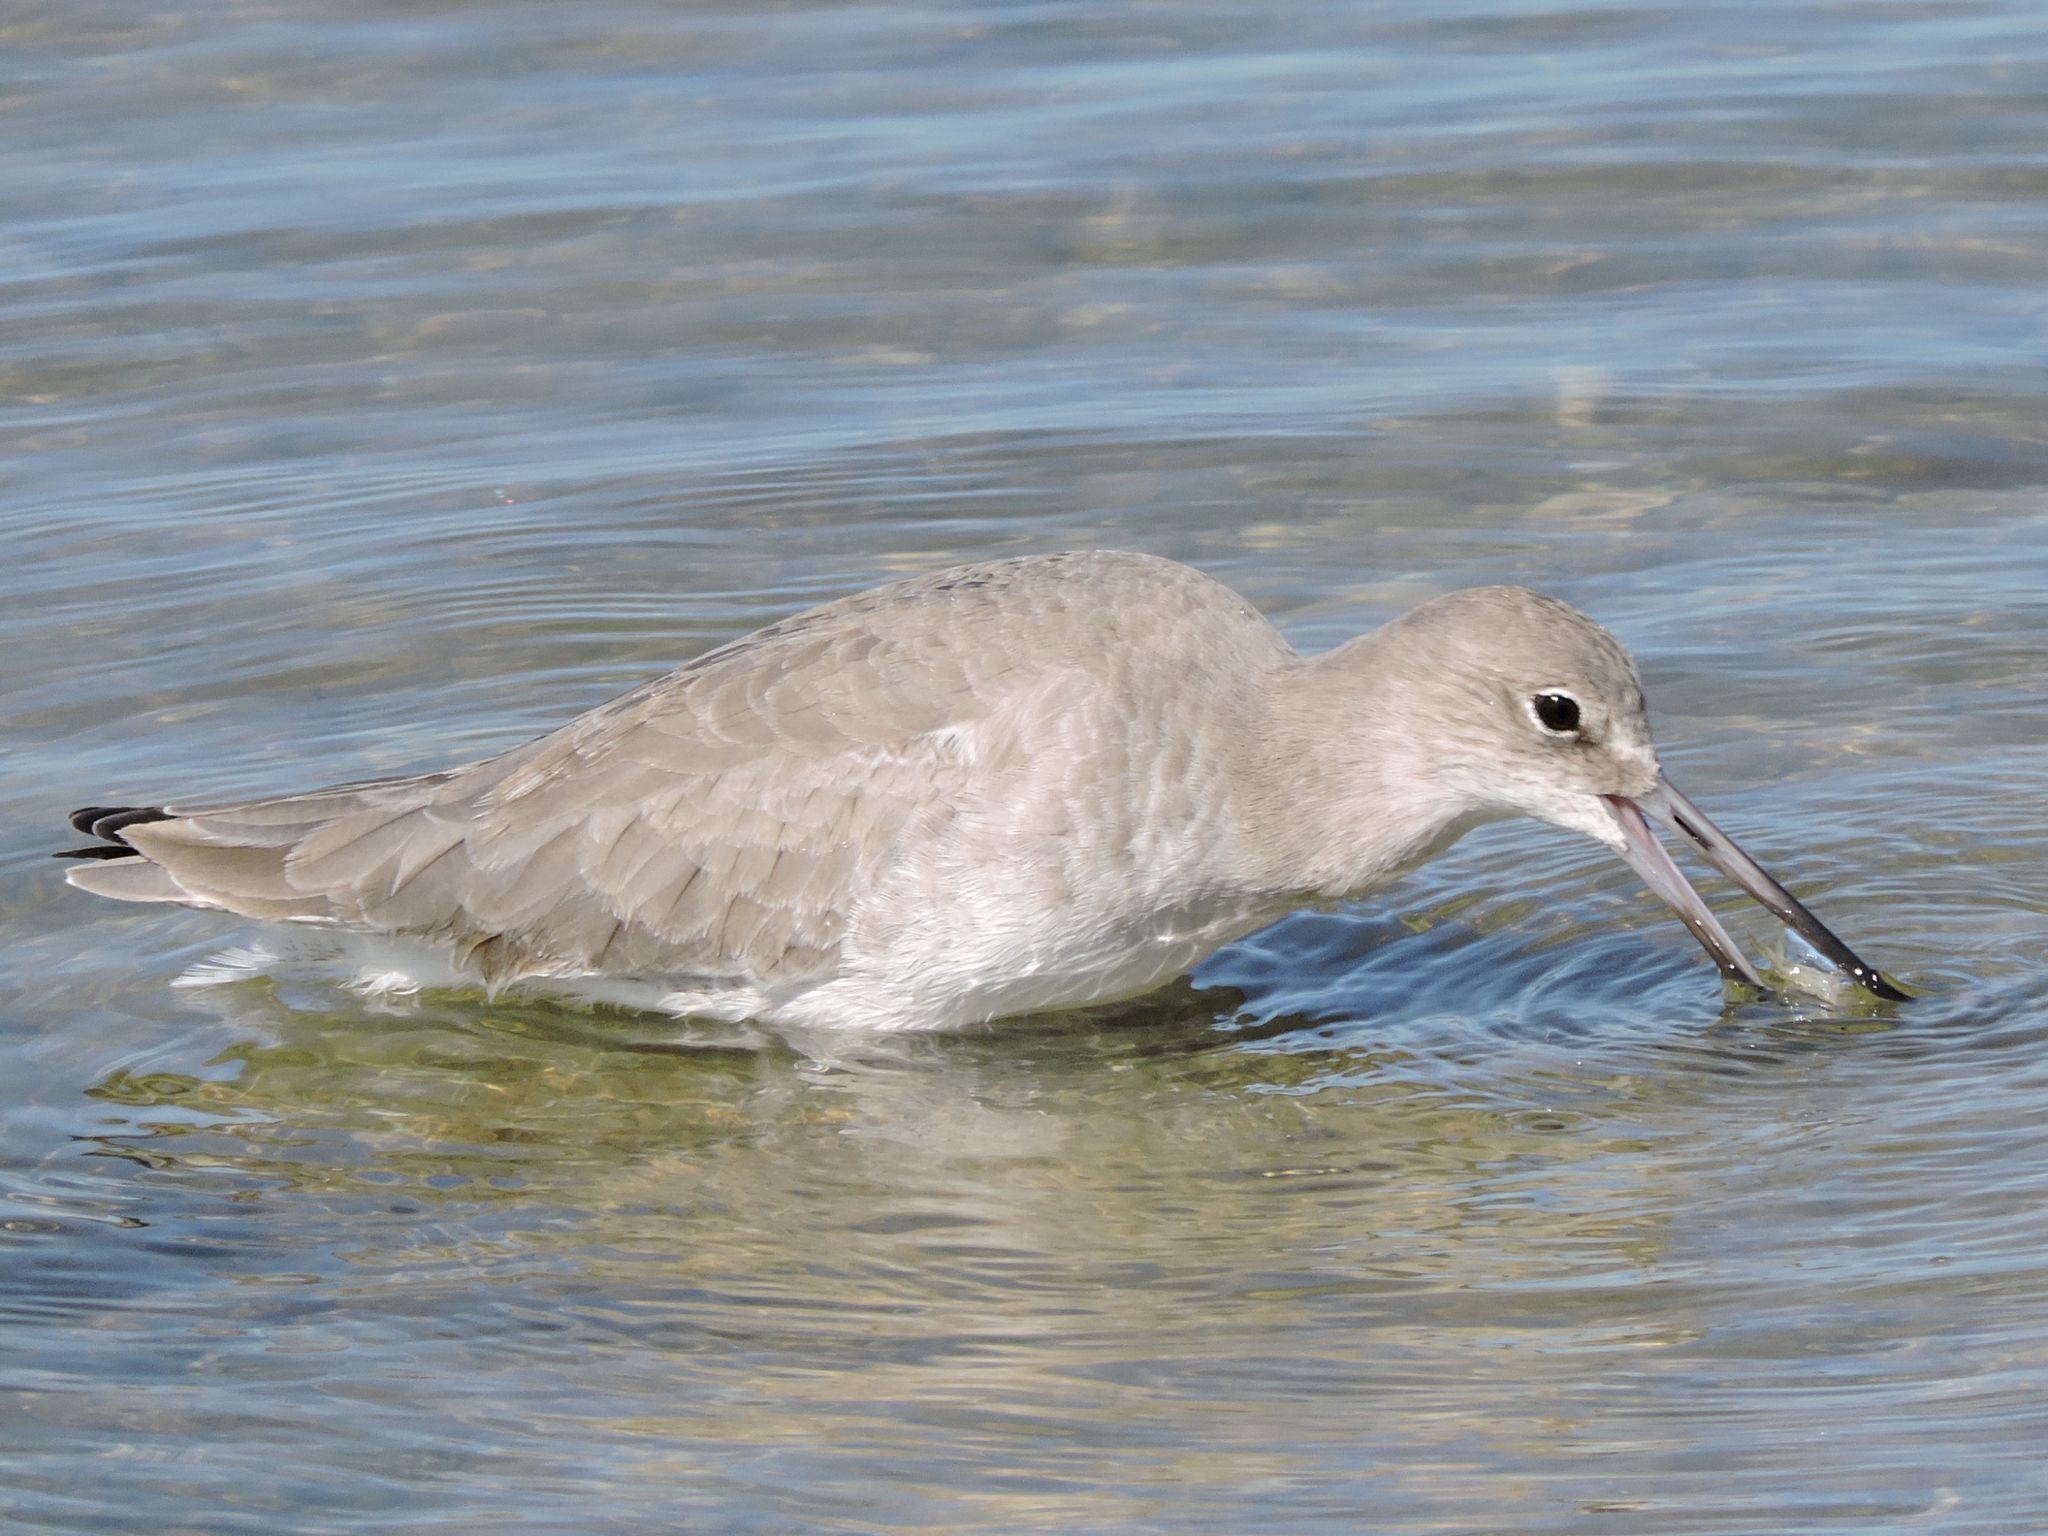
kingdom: Animalia
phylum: Chordata
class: Aves
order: Charadriiformes
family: Scolopacidae
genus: Tringa
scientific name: Tringa semipalmata
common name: Willet
